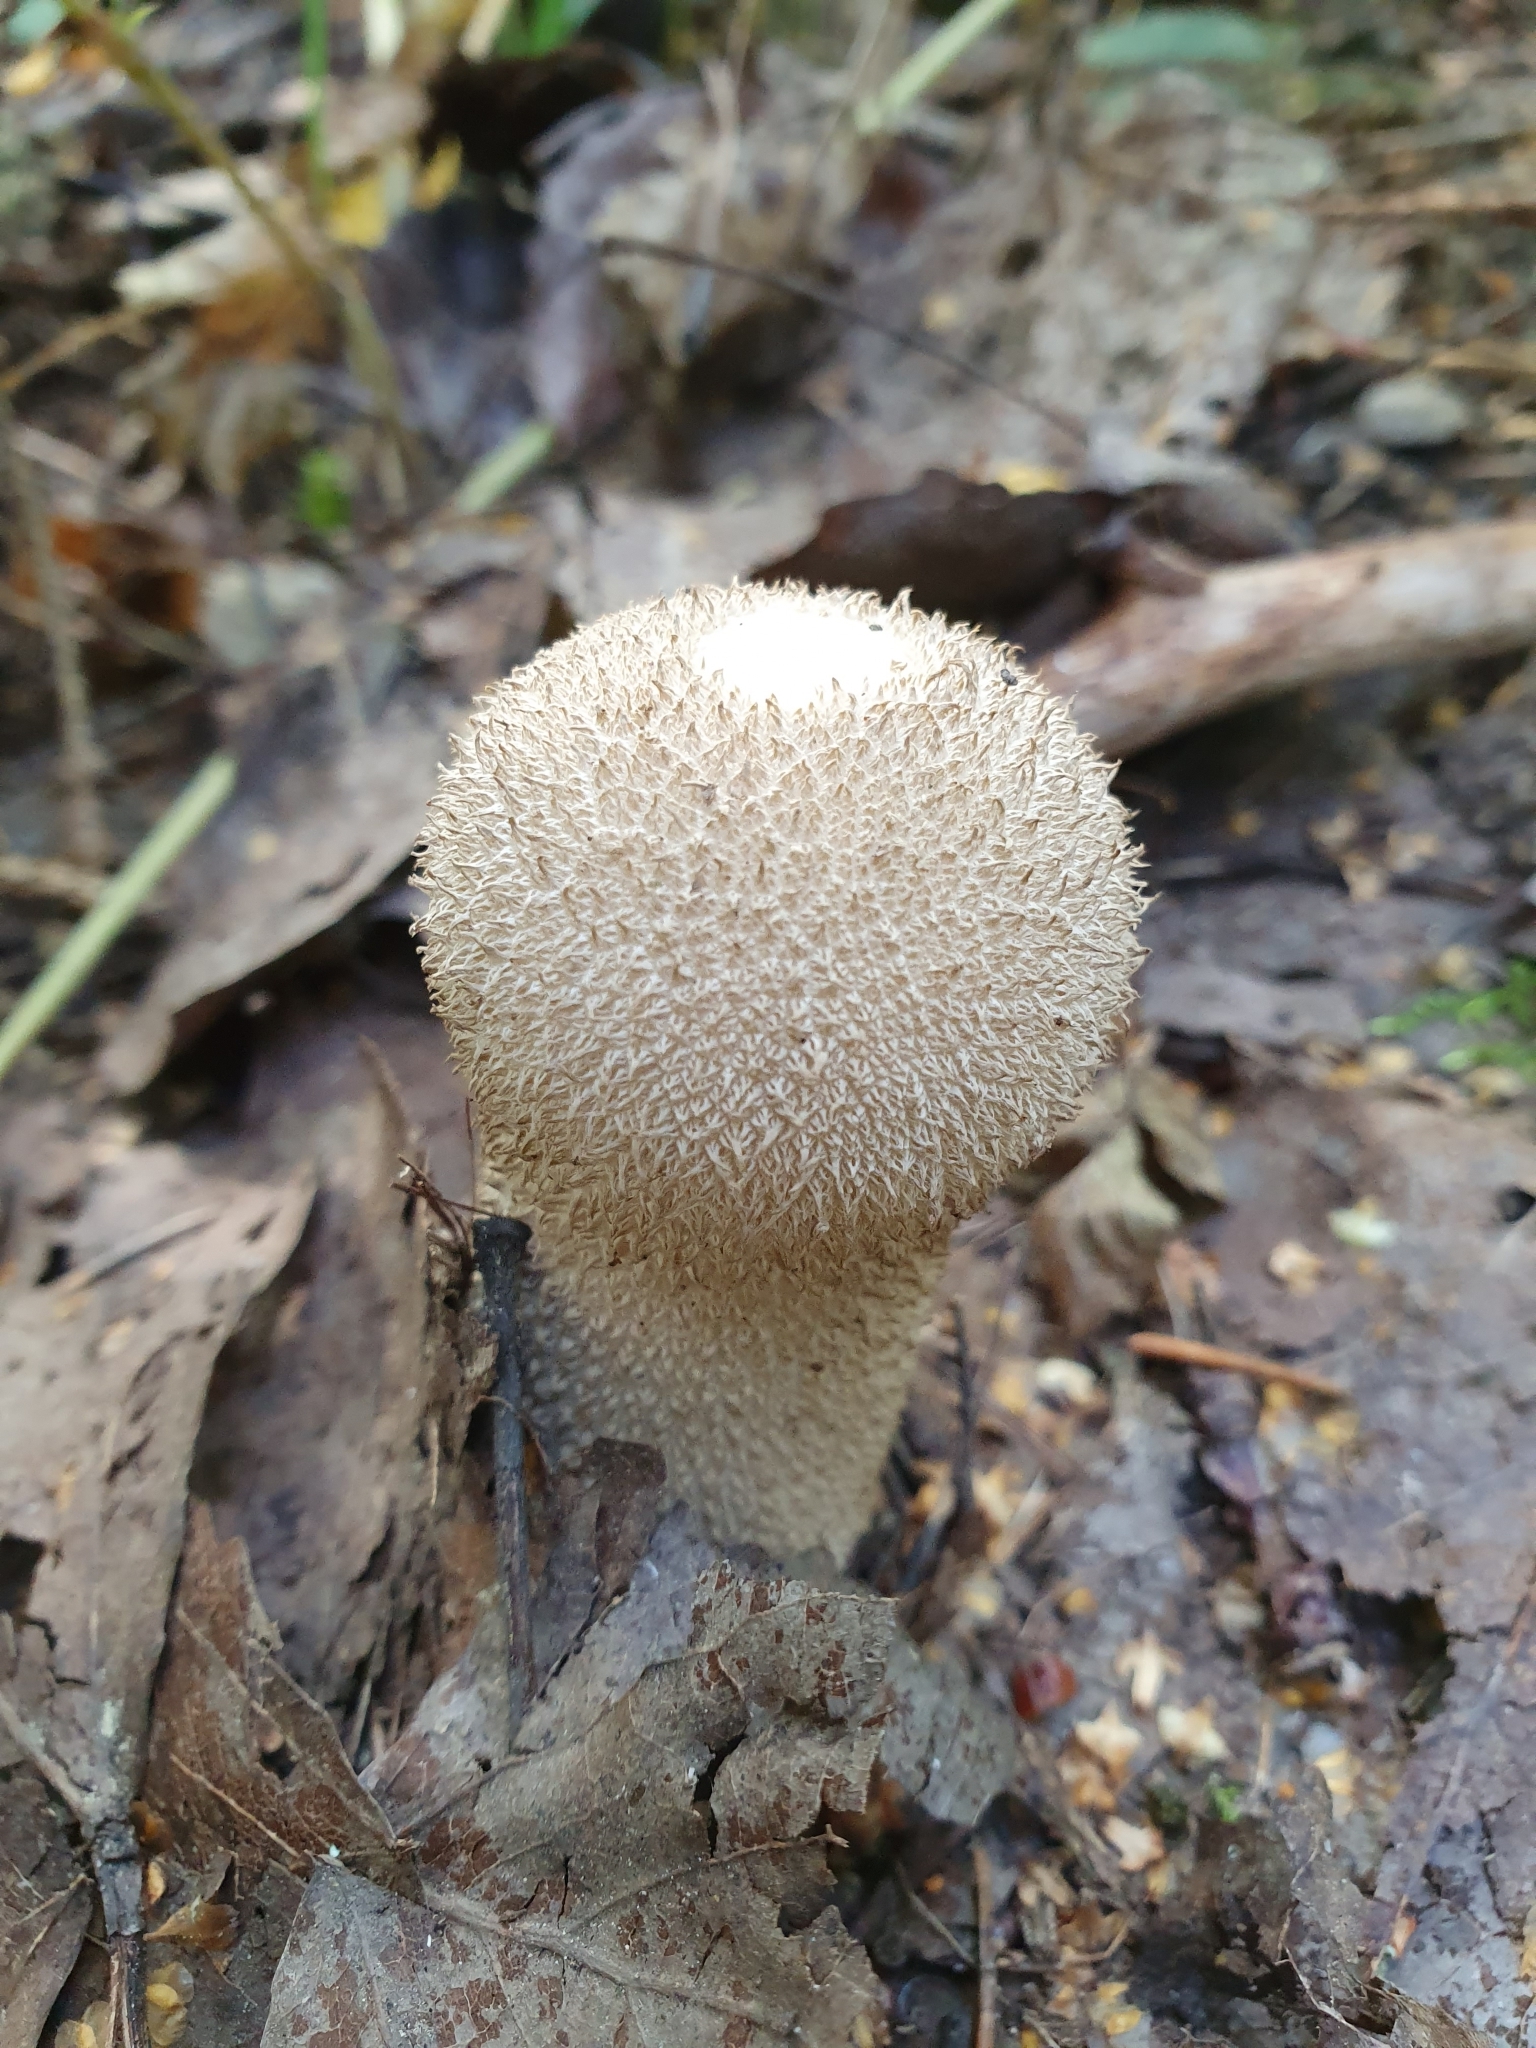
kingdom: Fungi
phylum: Basidiomycota
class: Agaricomycetes
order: Agaricales
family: Lycoperdaceae
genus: Lycoperdon
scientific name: Lycoperdon perlatum
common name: Common puffball
